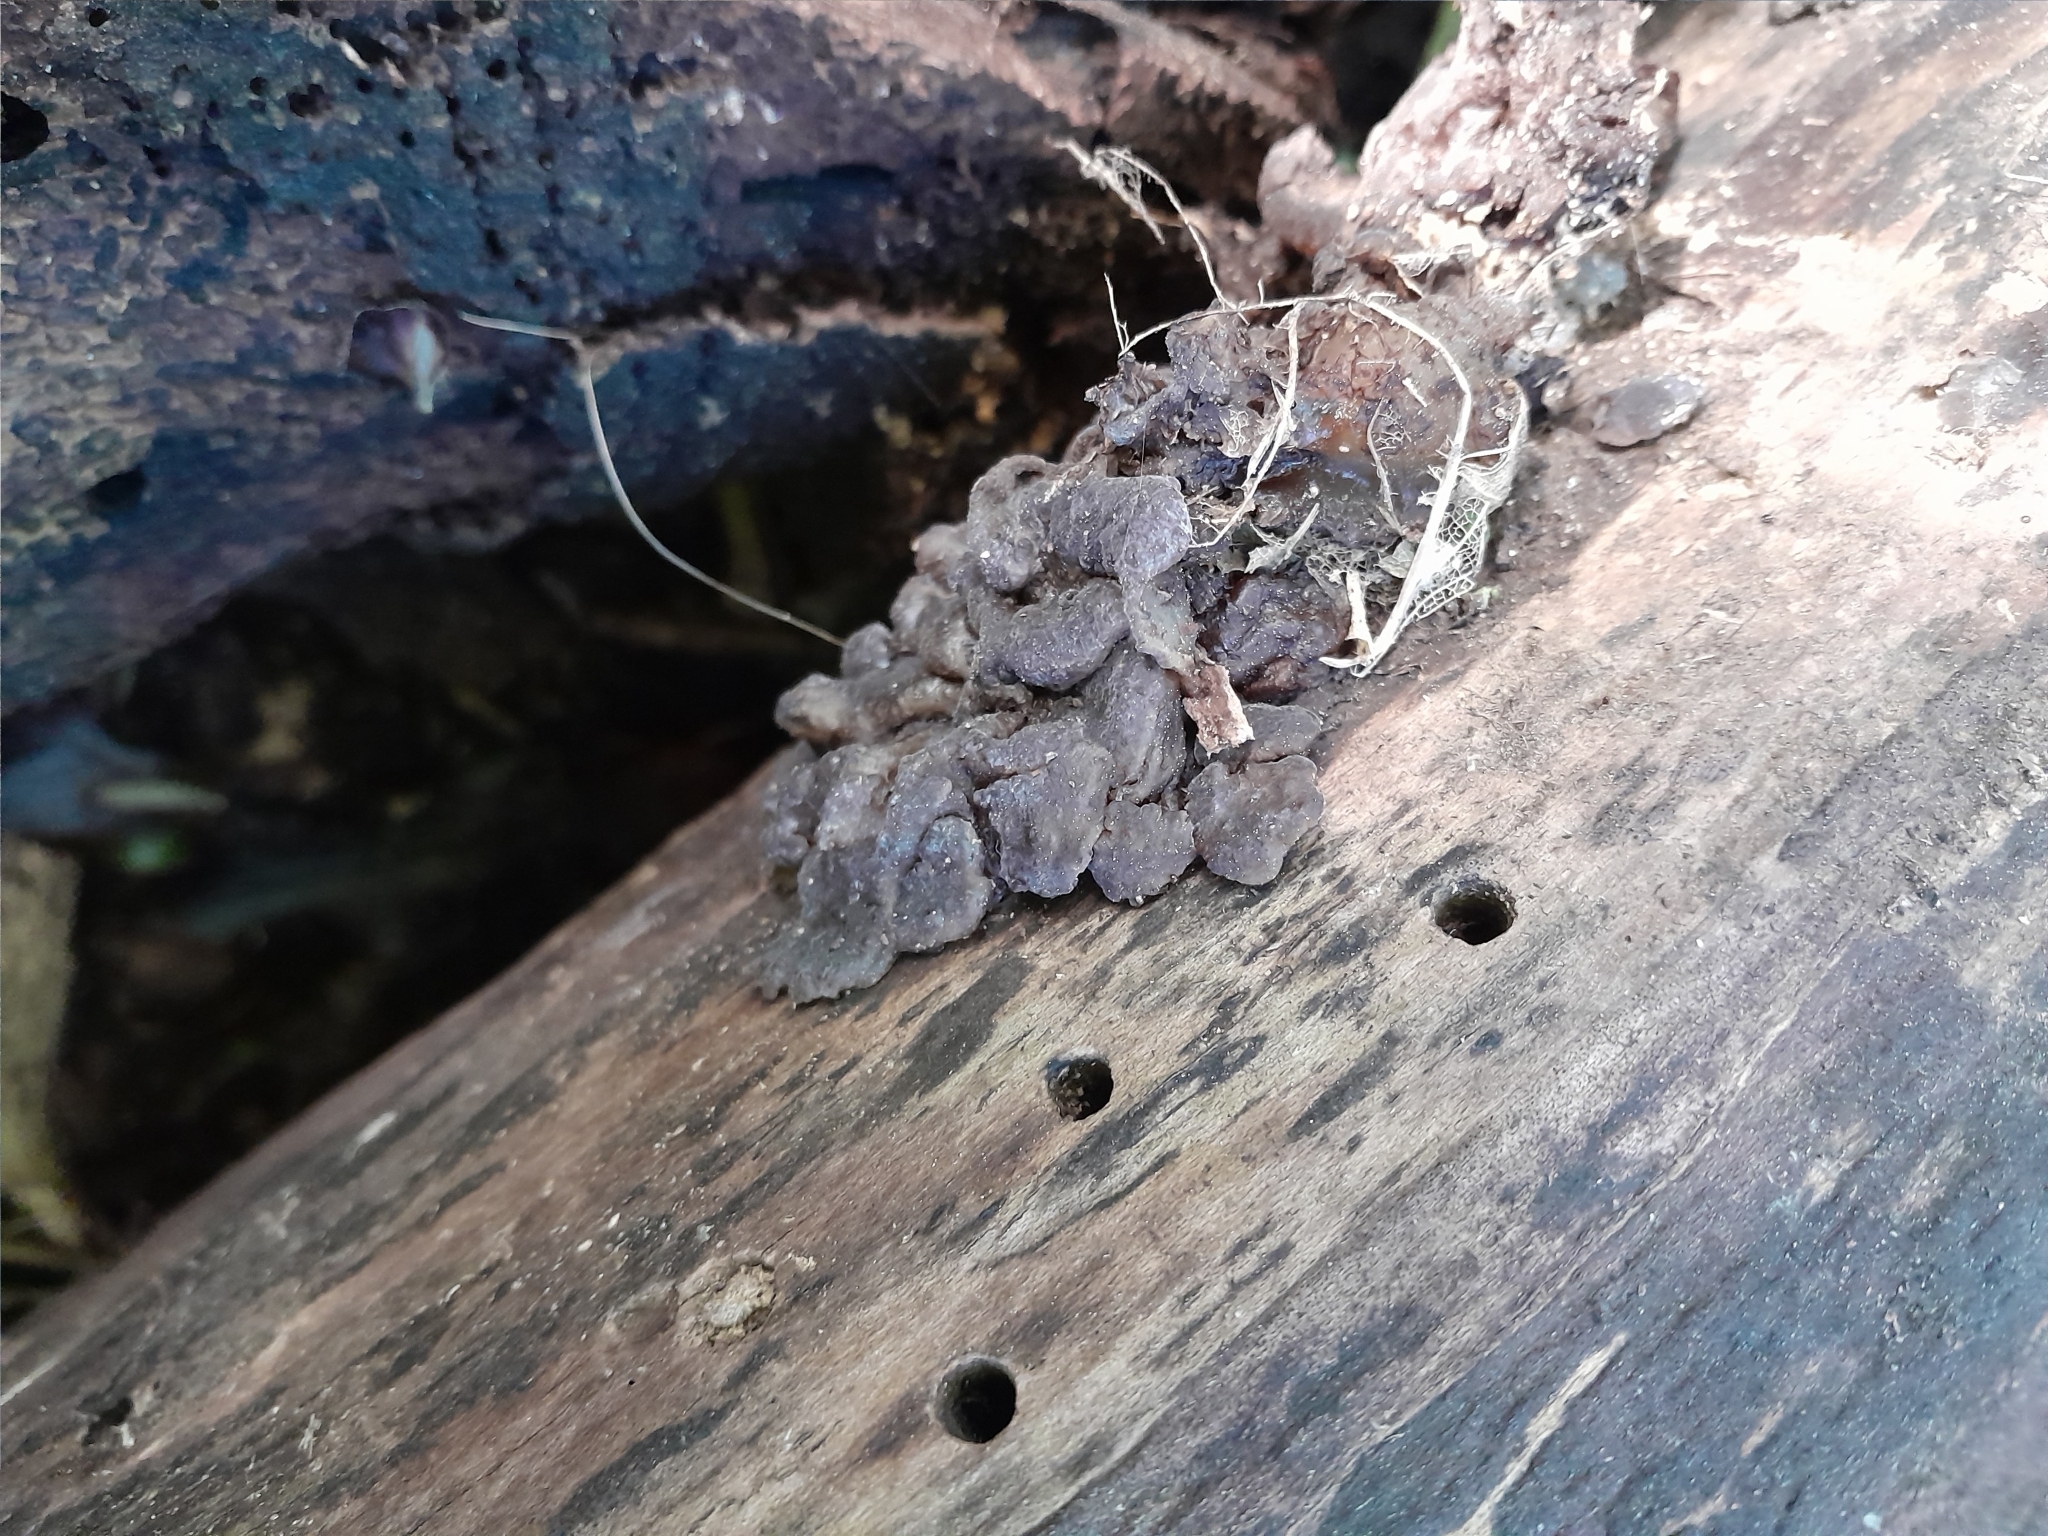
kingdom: Fungi
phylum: Basidiomycota
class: Agaricomycetes
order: Auriculariales
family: Auriculariaceae
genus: Tremellochaete
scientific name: Tremellochaete
